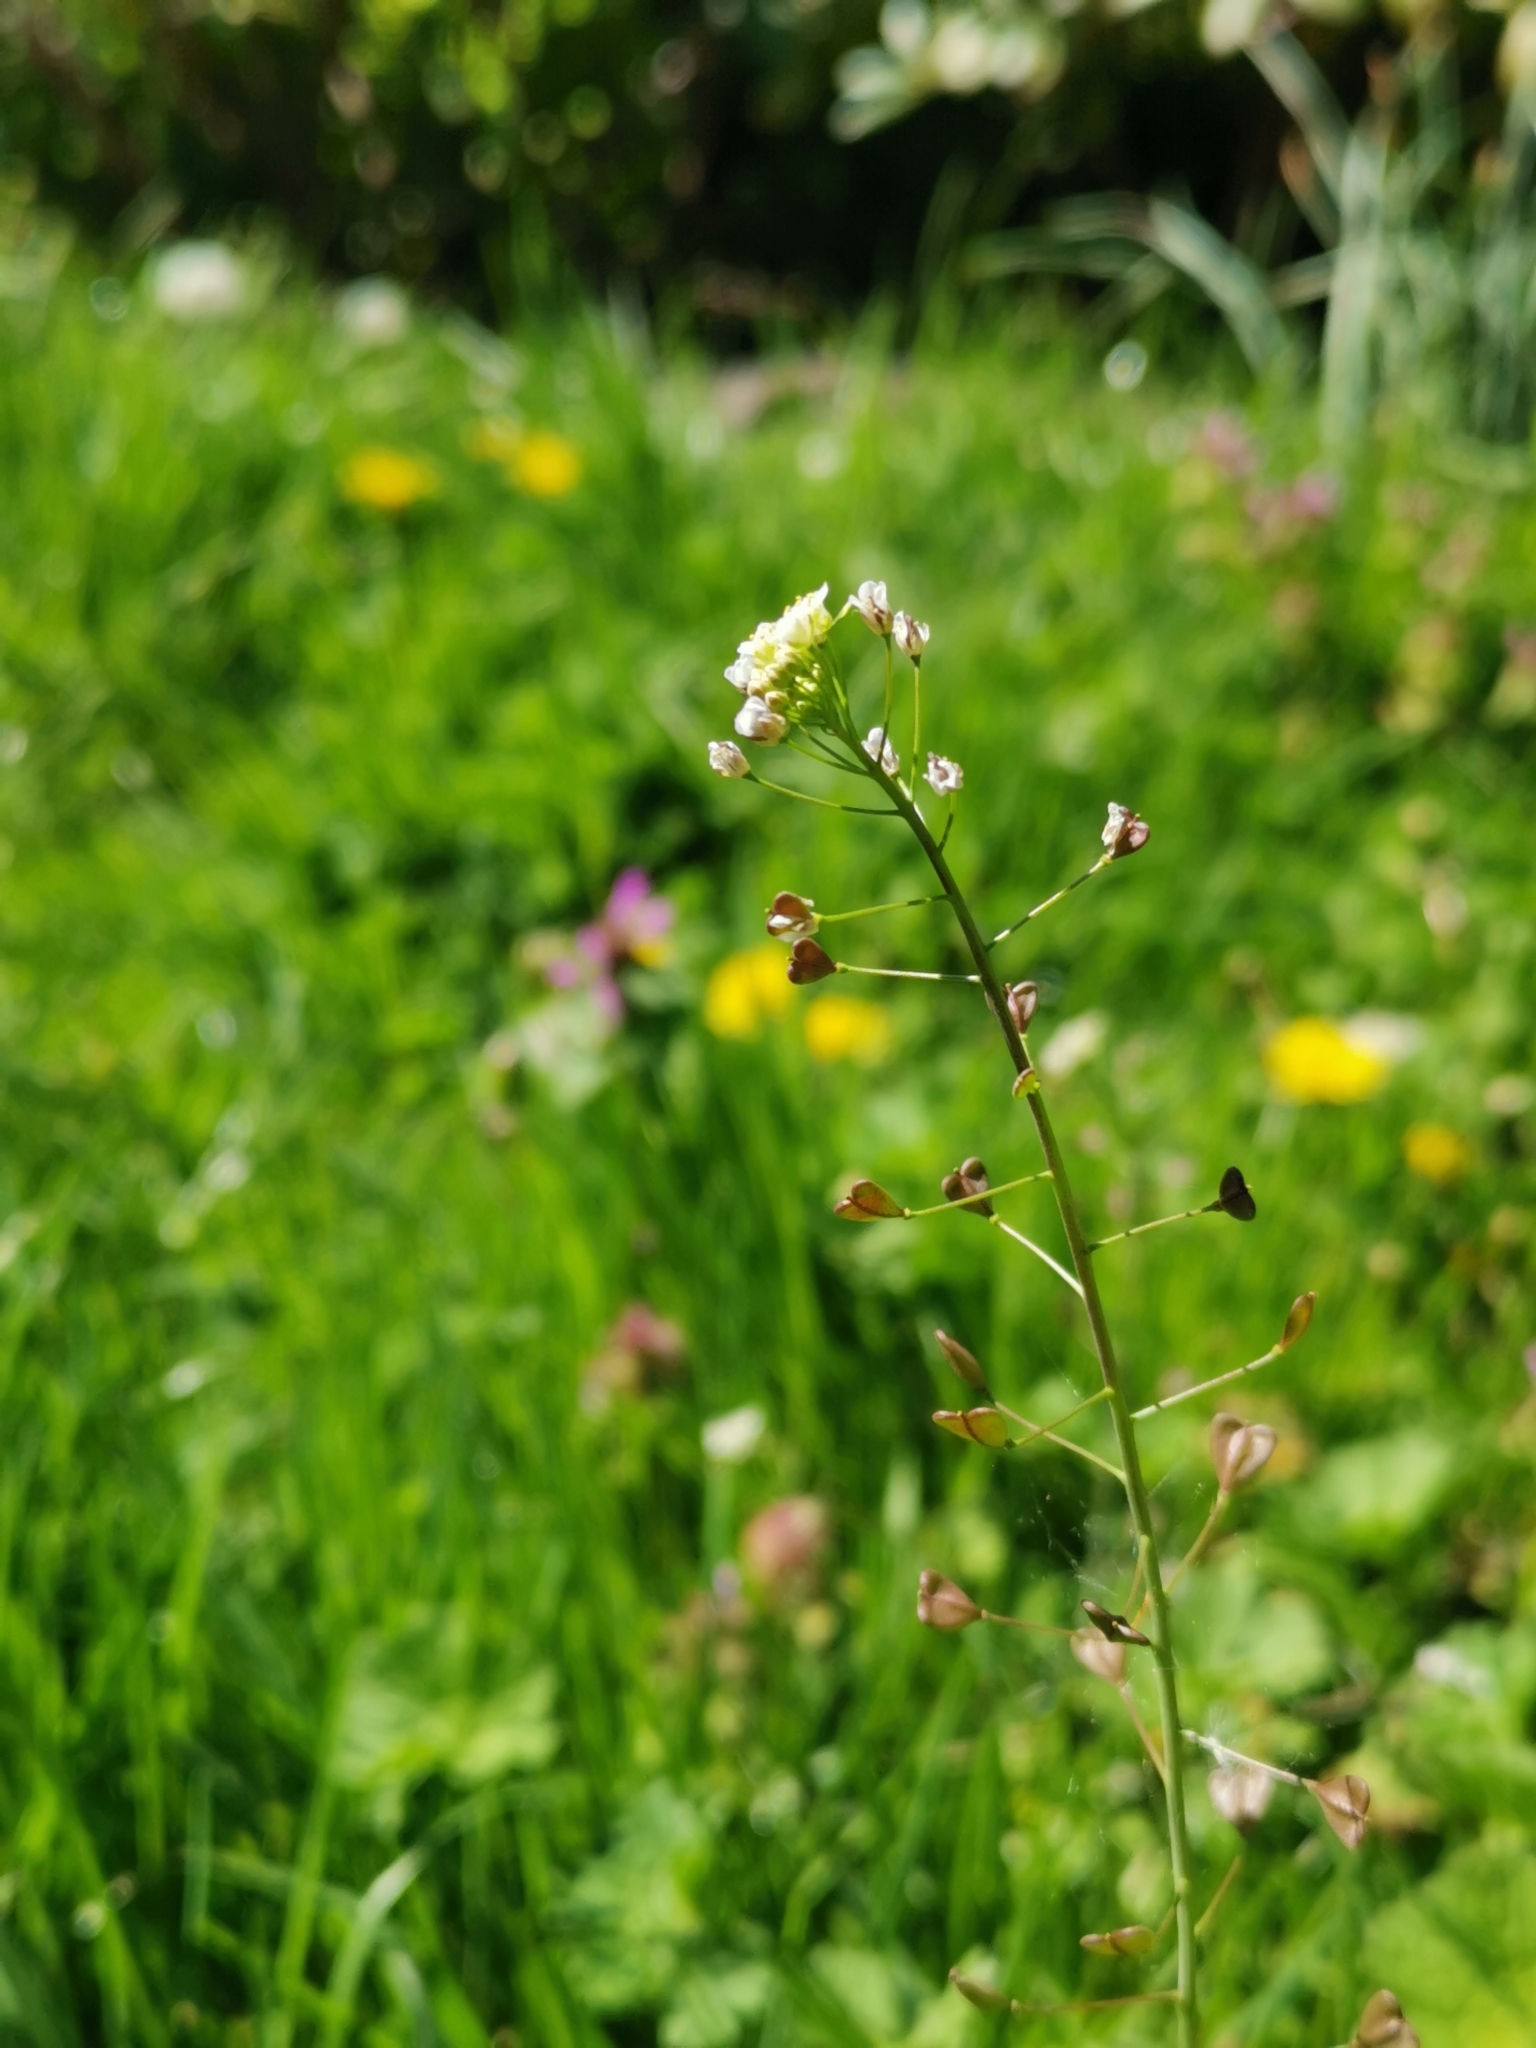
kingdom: Plantae
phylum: Tracheophyta
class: Magnoliopsida
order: Brassicales
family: Brassicaceae
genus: Capsella
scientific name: Capsella bursa-pastoris
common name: Shepherd's purse
